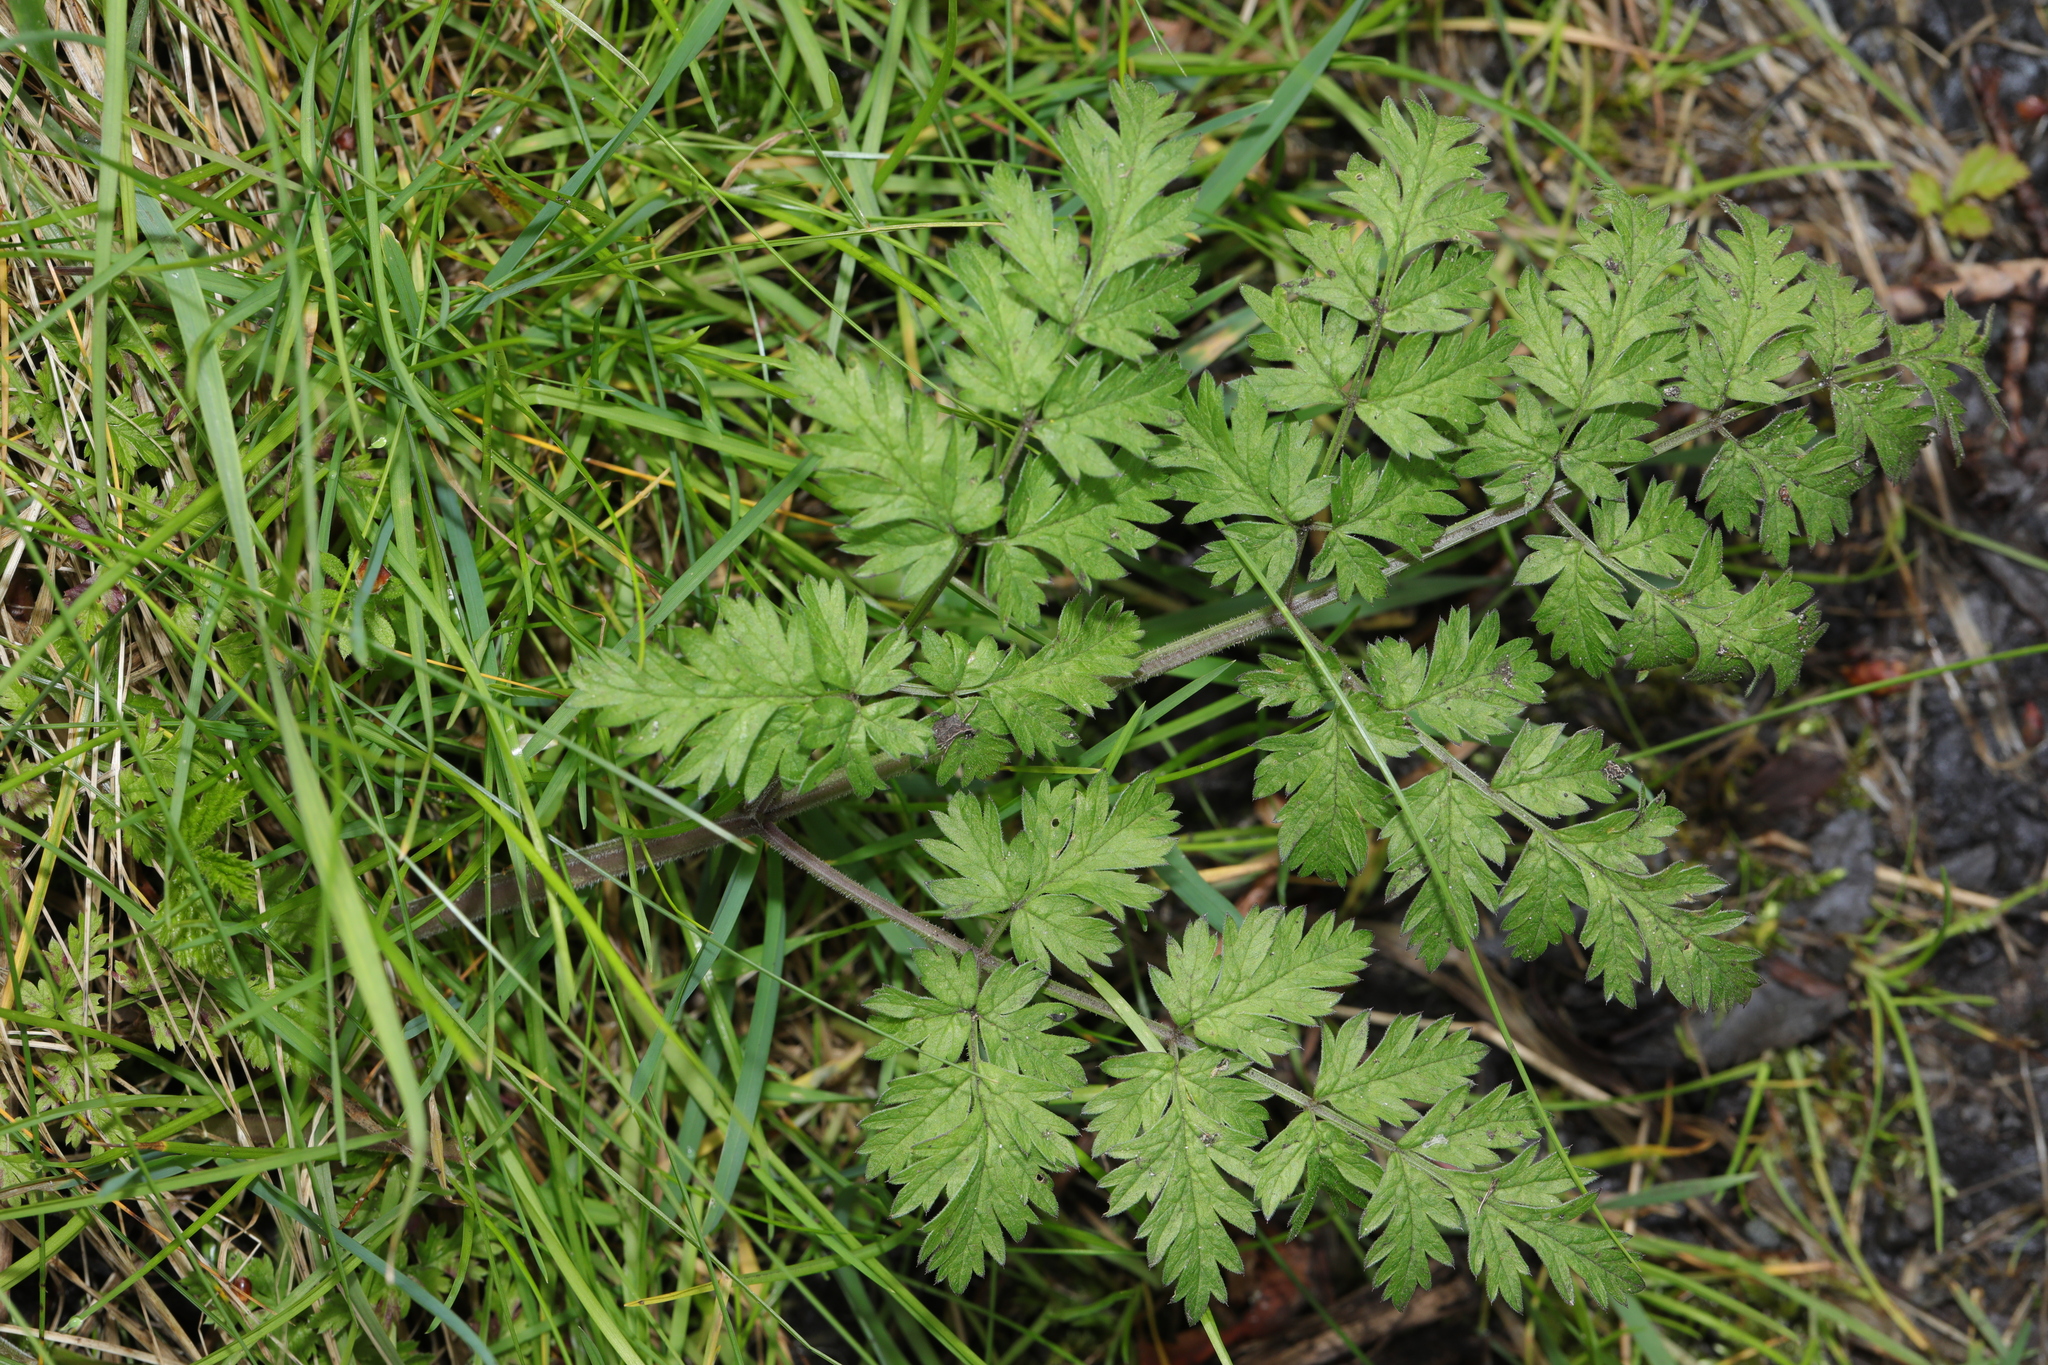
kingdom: Plantae
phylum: Tracheophyta
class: Magnoliopsida
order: Apiales
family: Apiaceae
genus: Anthriscus
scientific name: Anthriscus sylvestris
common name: Cow parsley
